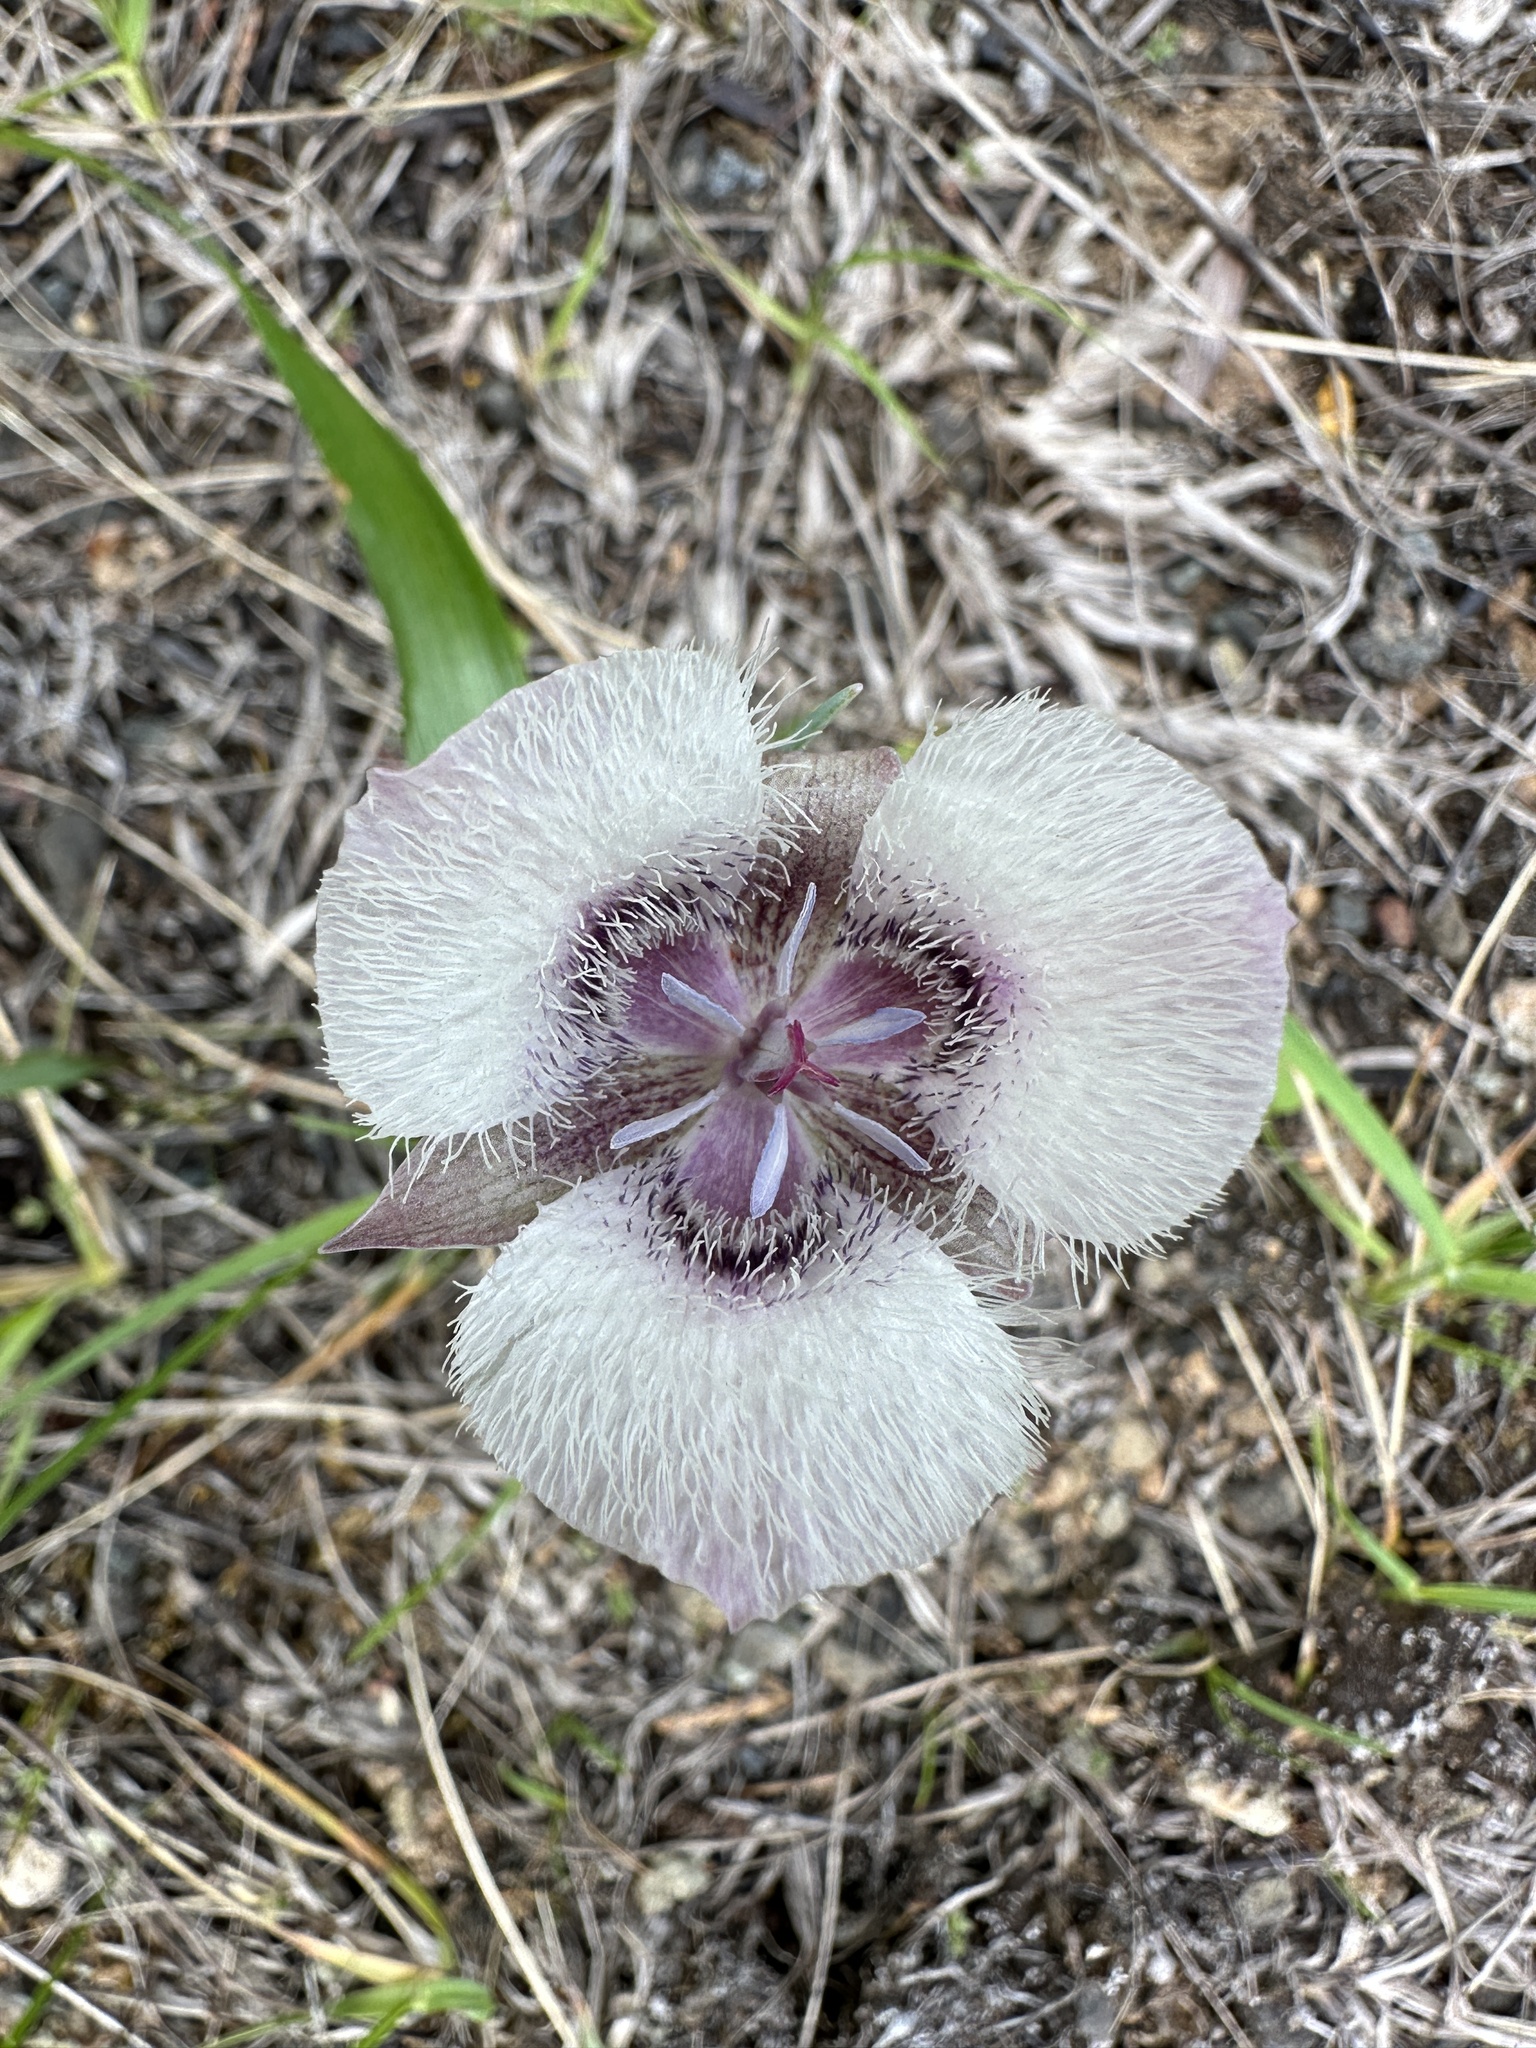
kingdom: Plantae
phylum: Tracheophyta
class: Liliopsida
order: Liliales
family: Liliaceae
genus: Calochortus
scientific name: Calochortus tolmiei
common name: Pussy-ears
